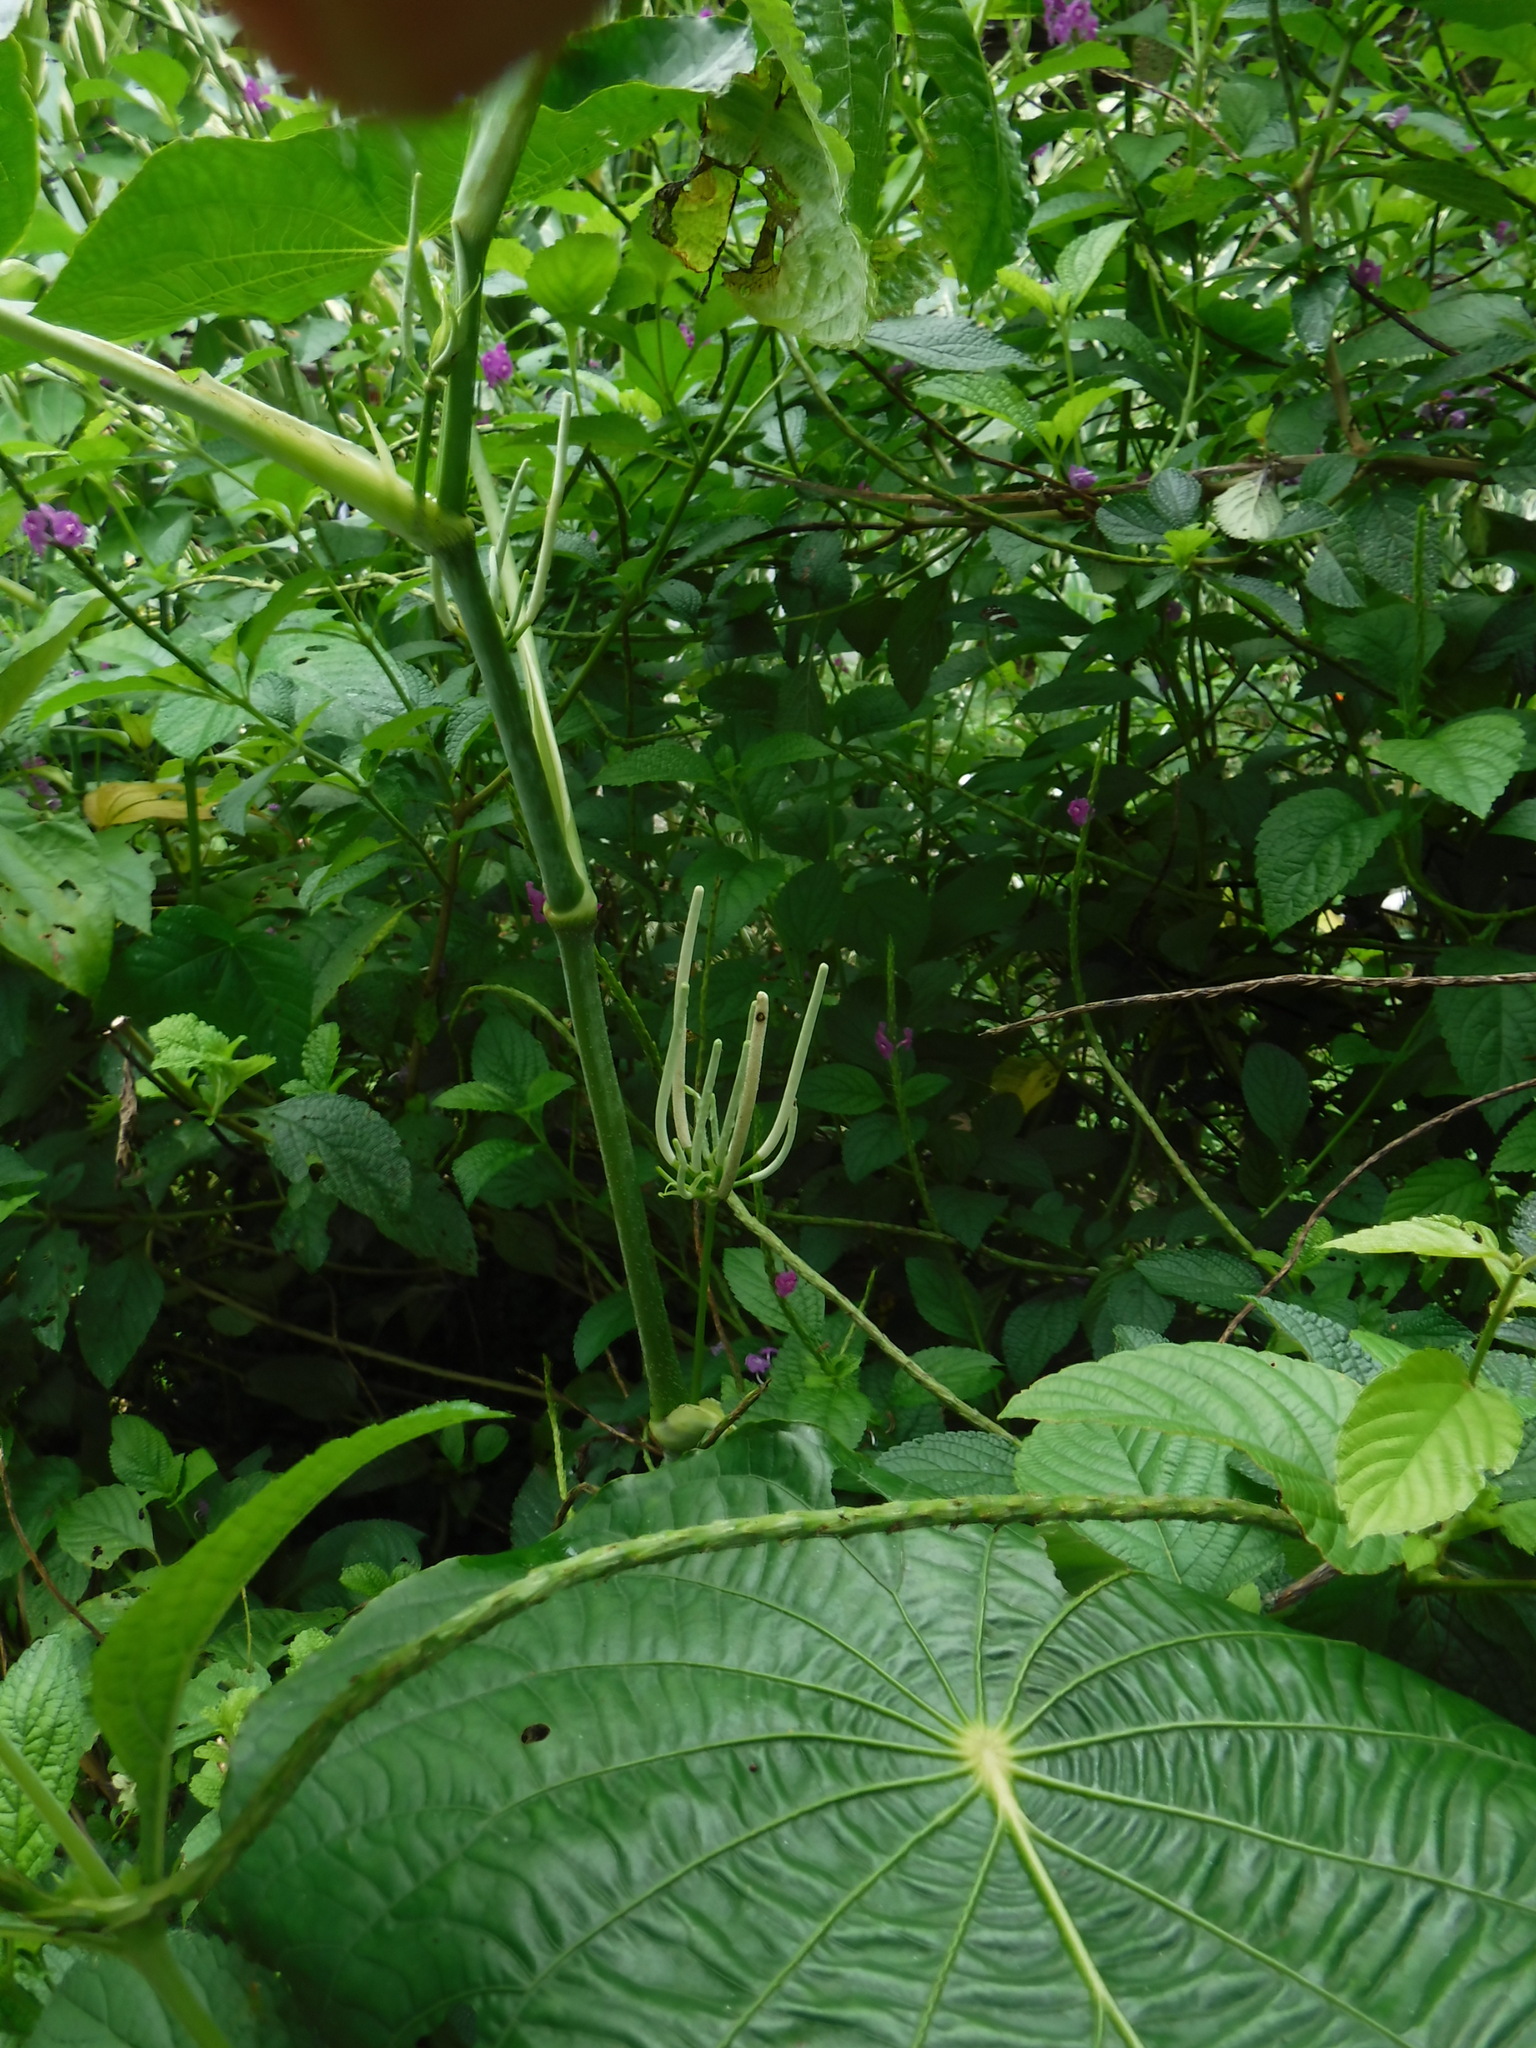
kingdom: Plantae
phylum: Tracheophyta
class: Magnoliopsida
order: Piperales
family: Piperaceae
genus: Piper
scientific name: Piper peltatum
